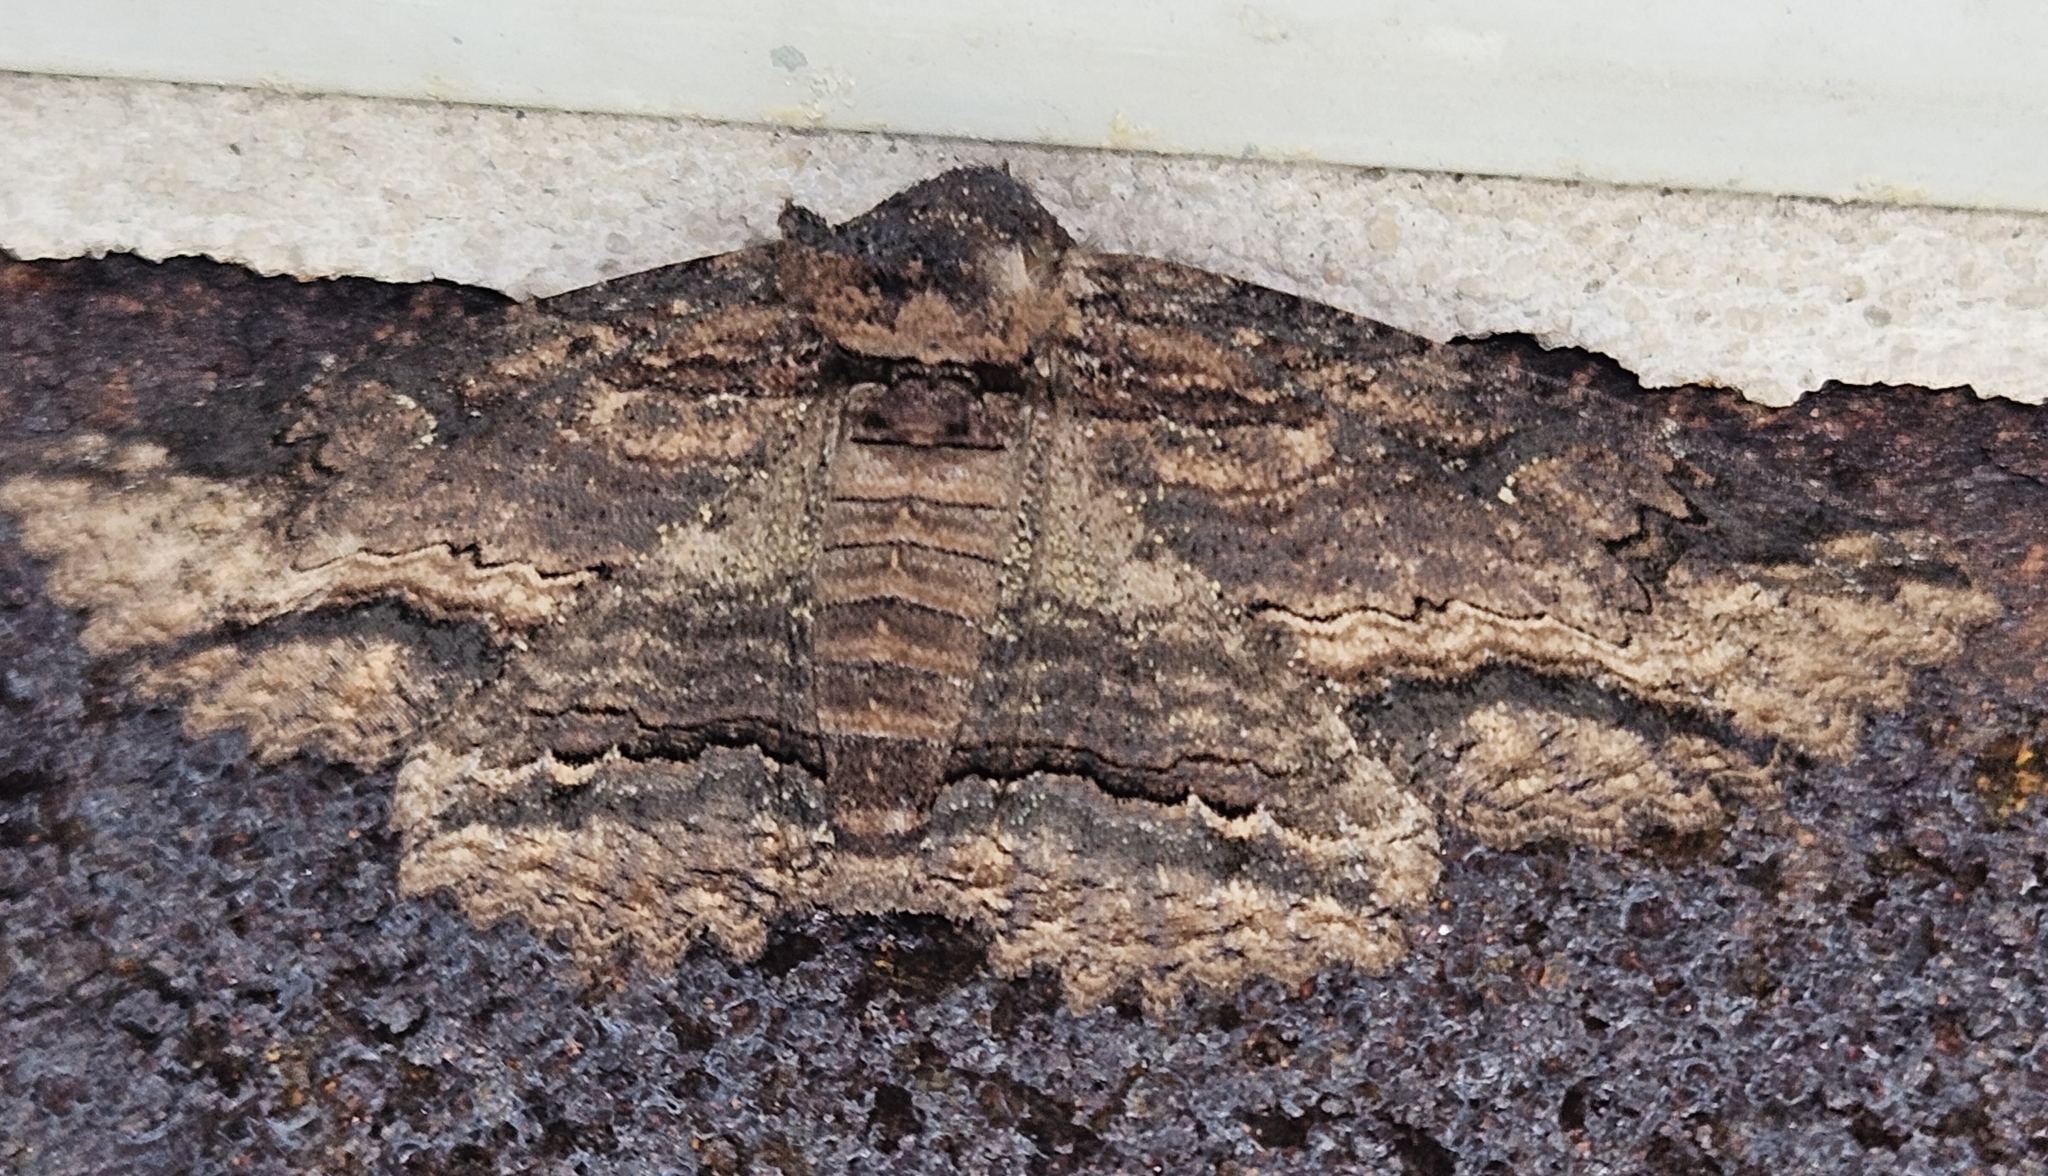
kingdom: Animalia
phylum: Arthropoda
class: Insecta
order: Lepidoptera
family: Erebidae
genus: Zale
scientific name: Zale lunata
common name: Lunate zale moth
